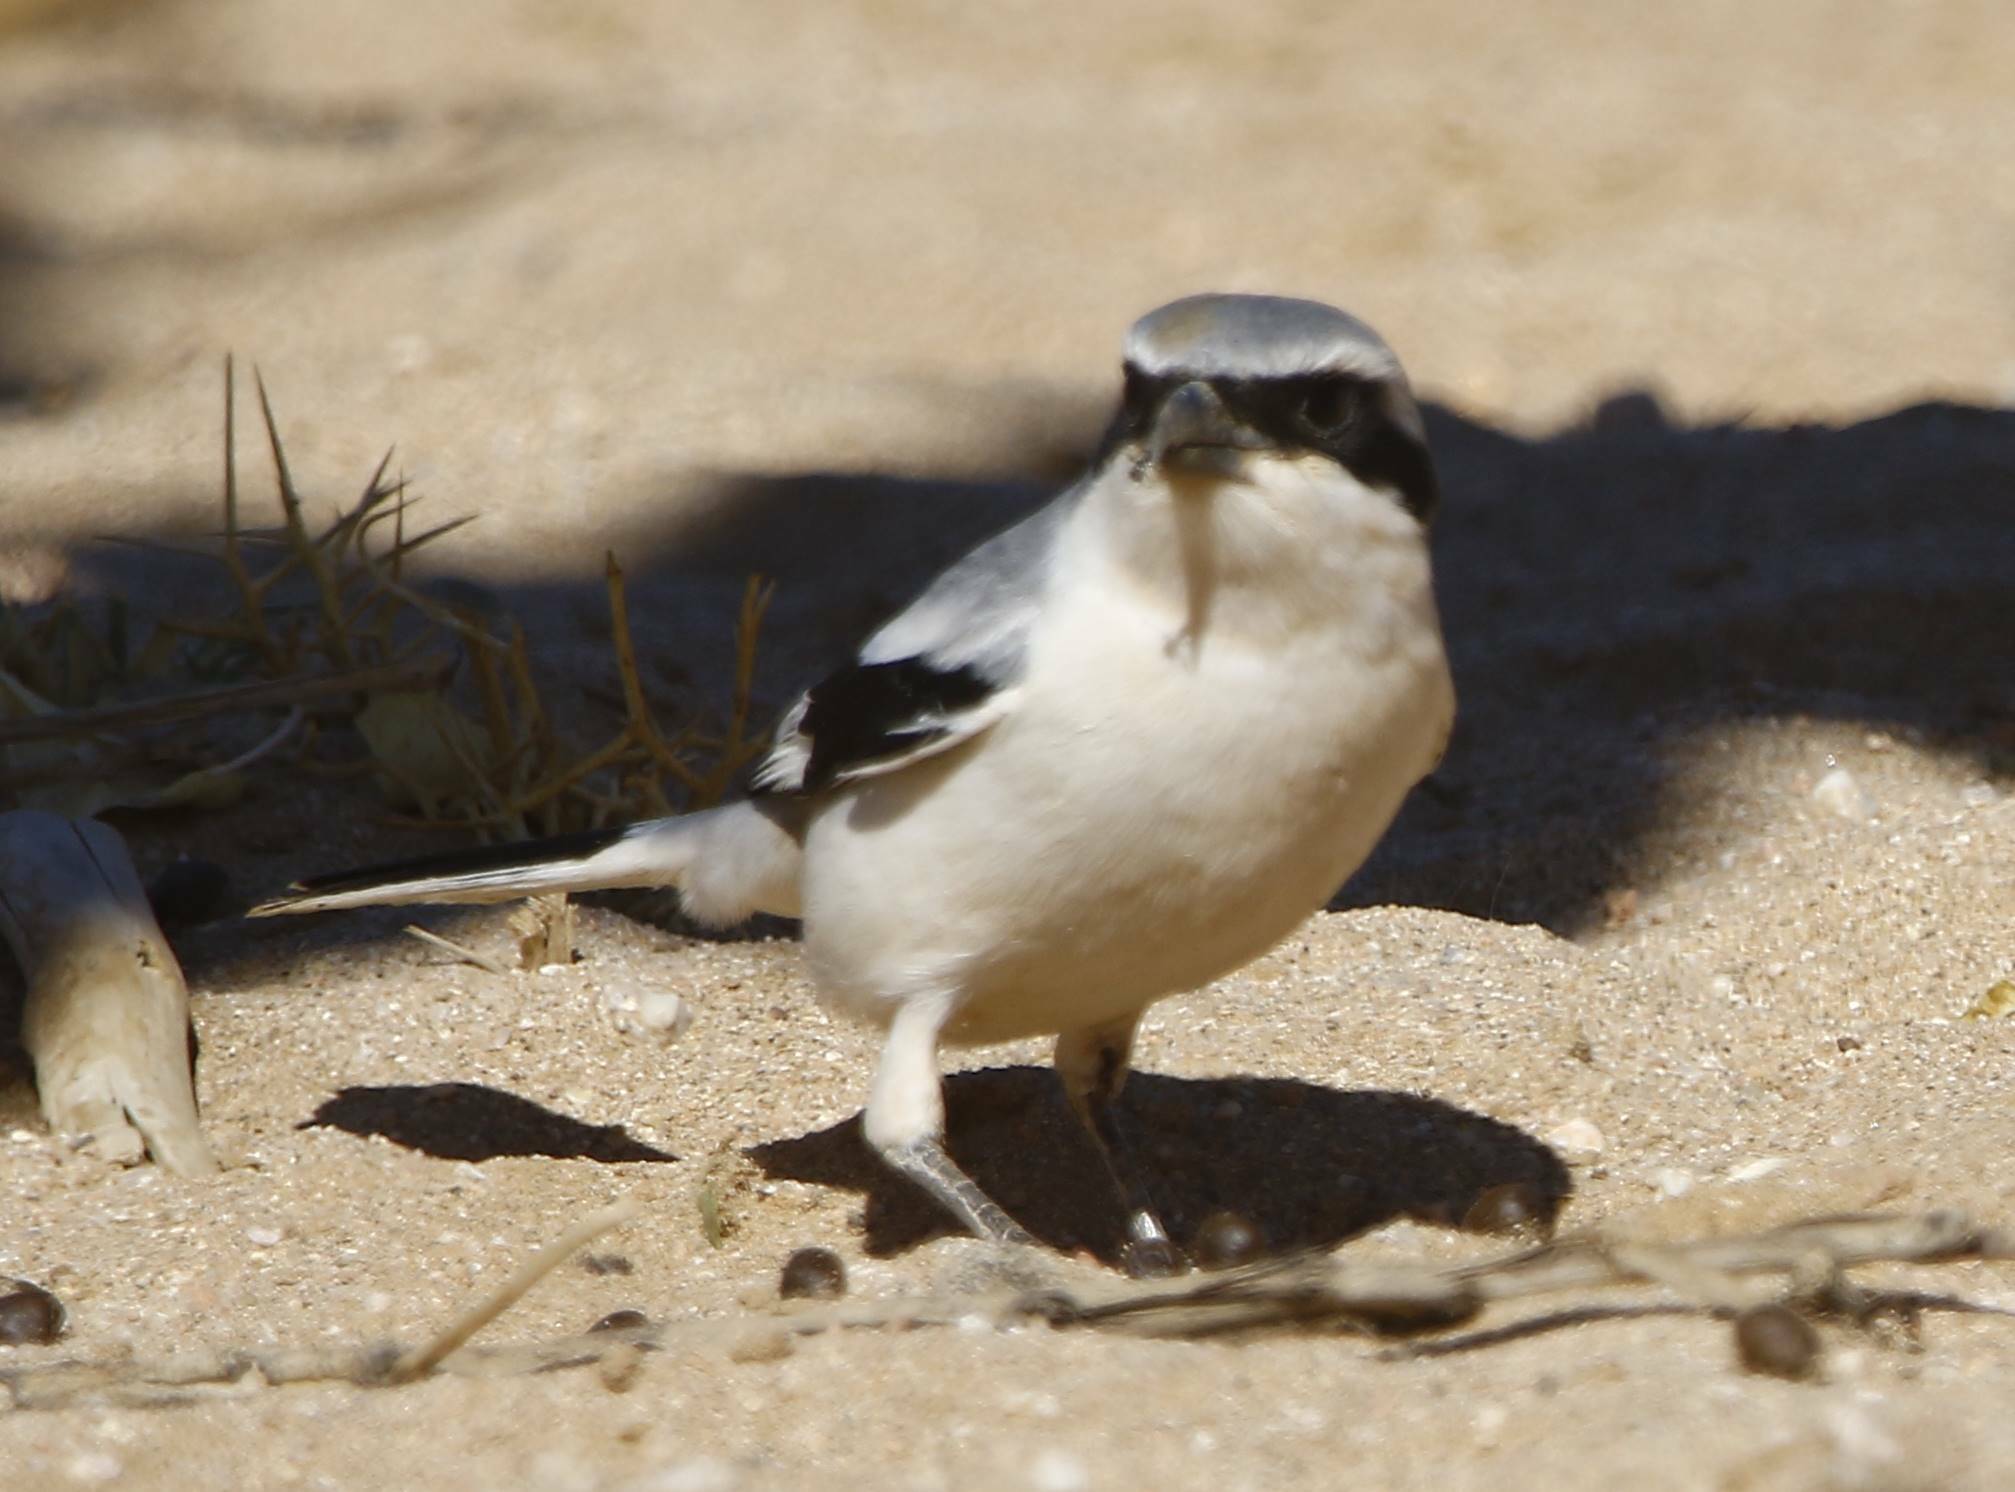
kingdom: Animalia
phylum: Chordata
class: Aves
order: Passeriformes
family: Laniidae
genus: Lanius
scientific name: Lanius excubitor
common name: Great grey shrike
